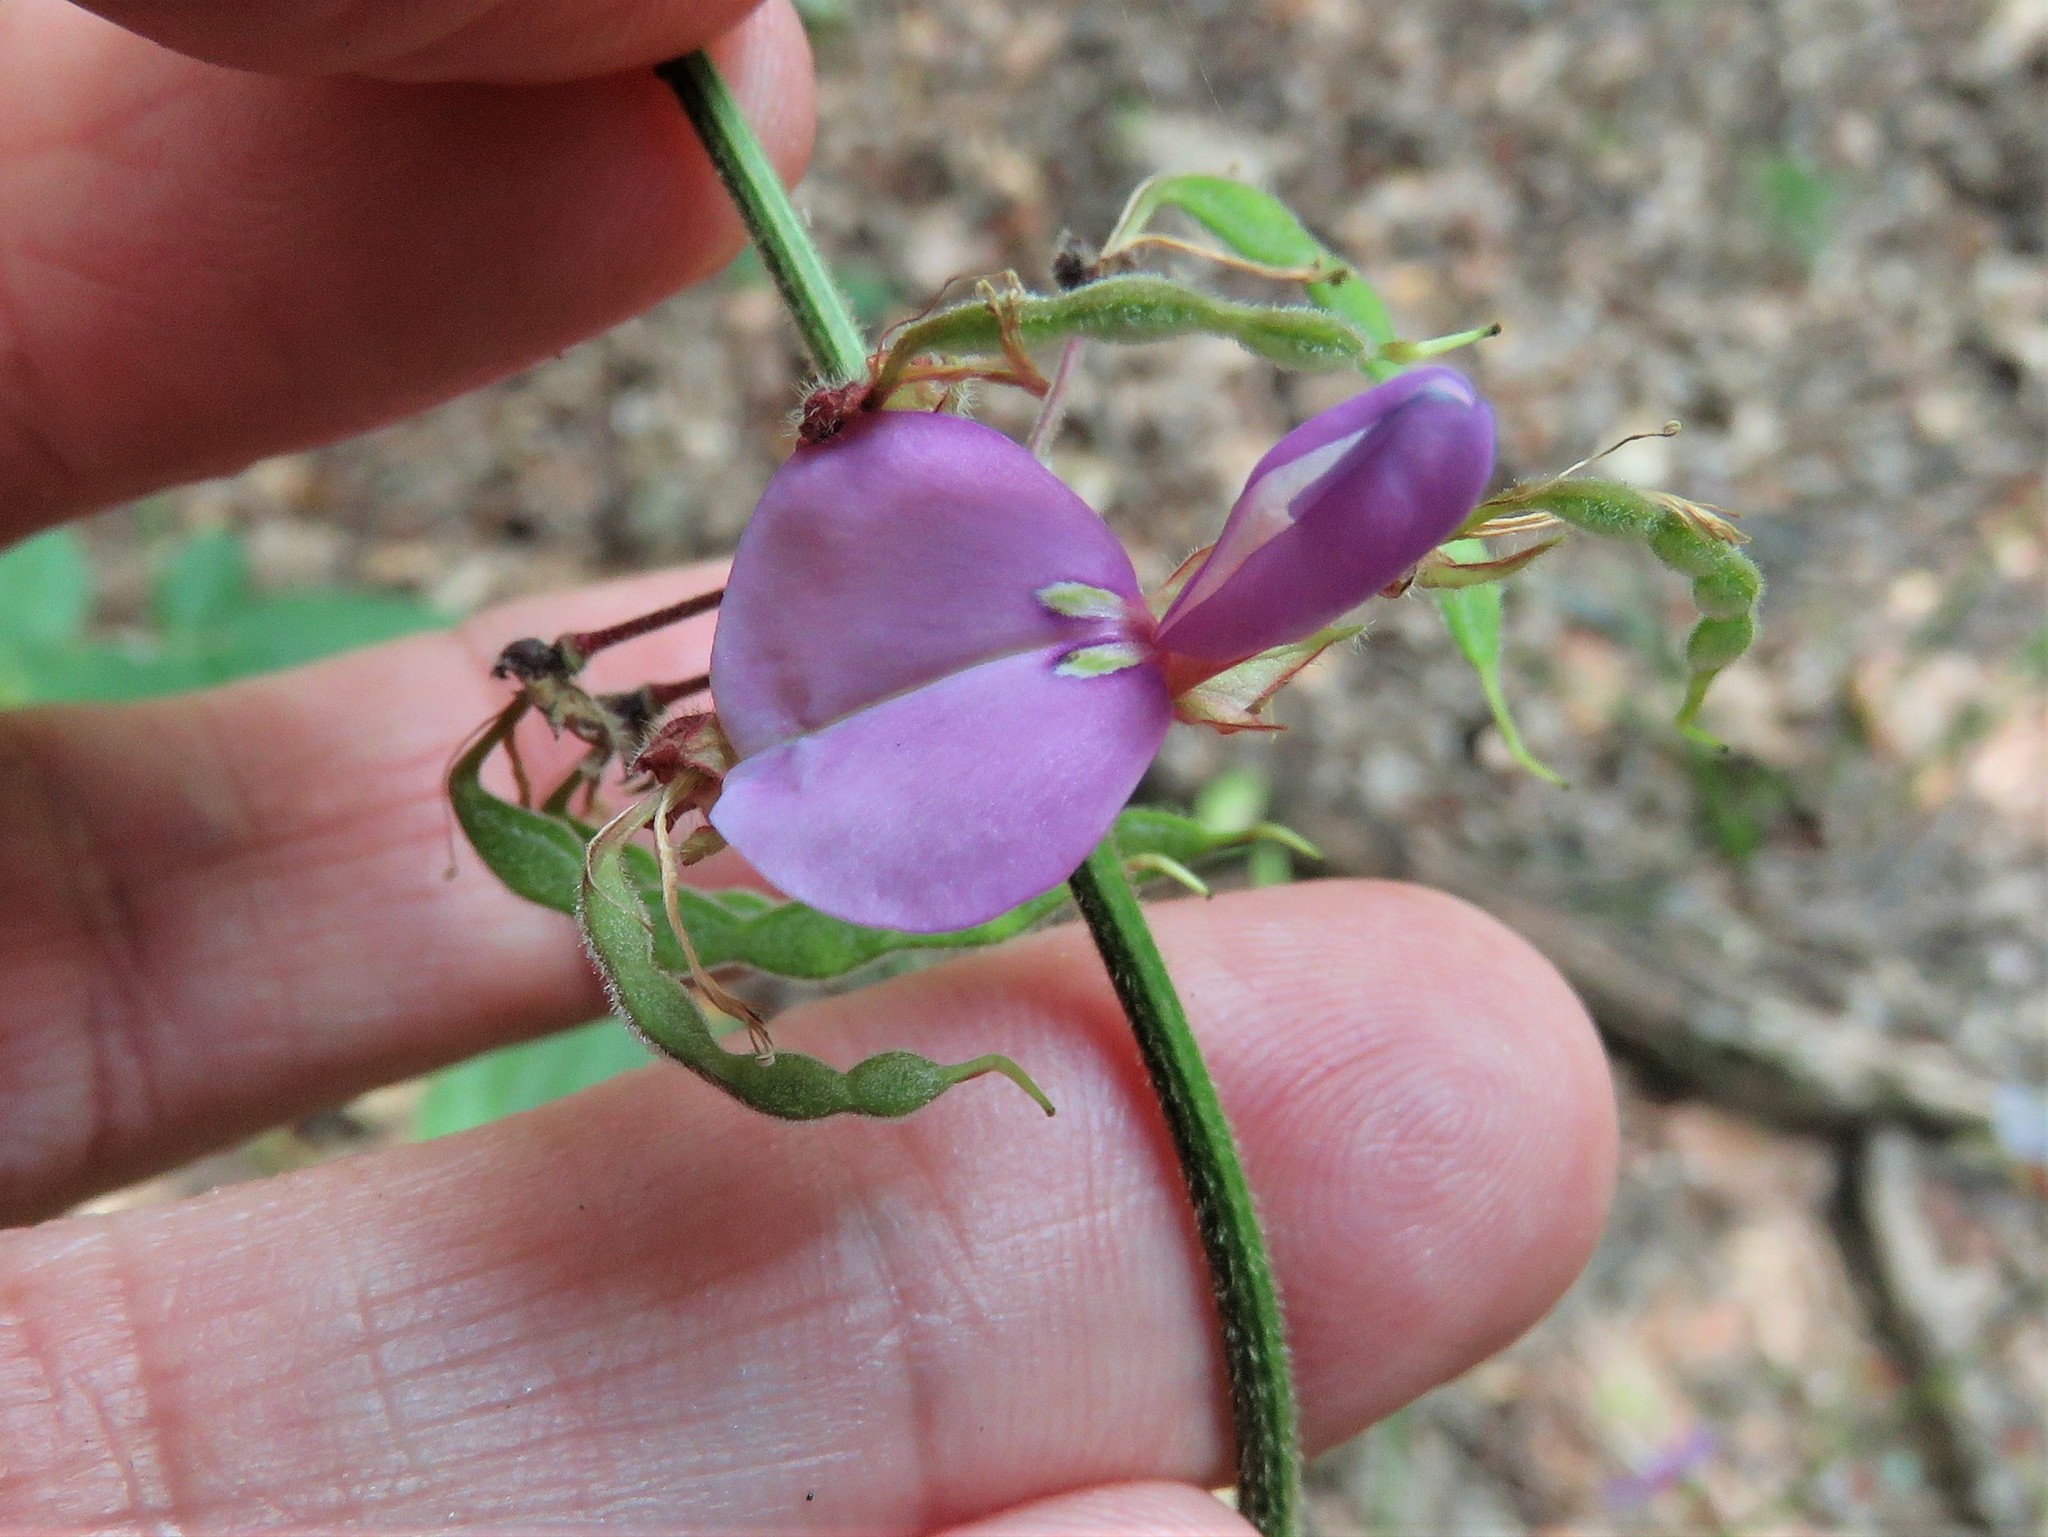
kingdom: Plantae
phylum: Tracheophyta
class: Magnoliopsida
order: Fabales
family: Fabaceae
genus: Desmodium
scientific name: Desmodium paniculatum
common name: Panicled tick-clover
